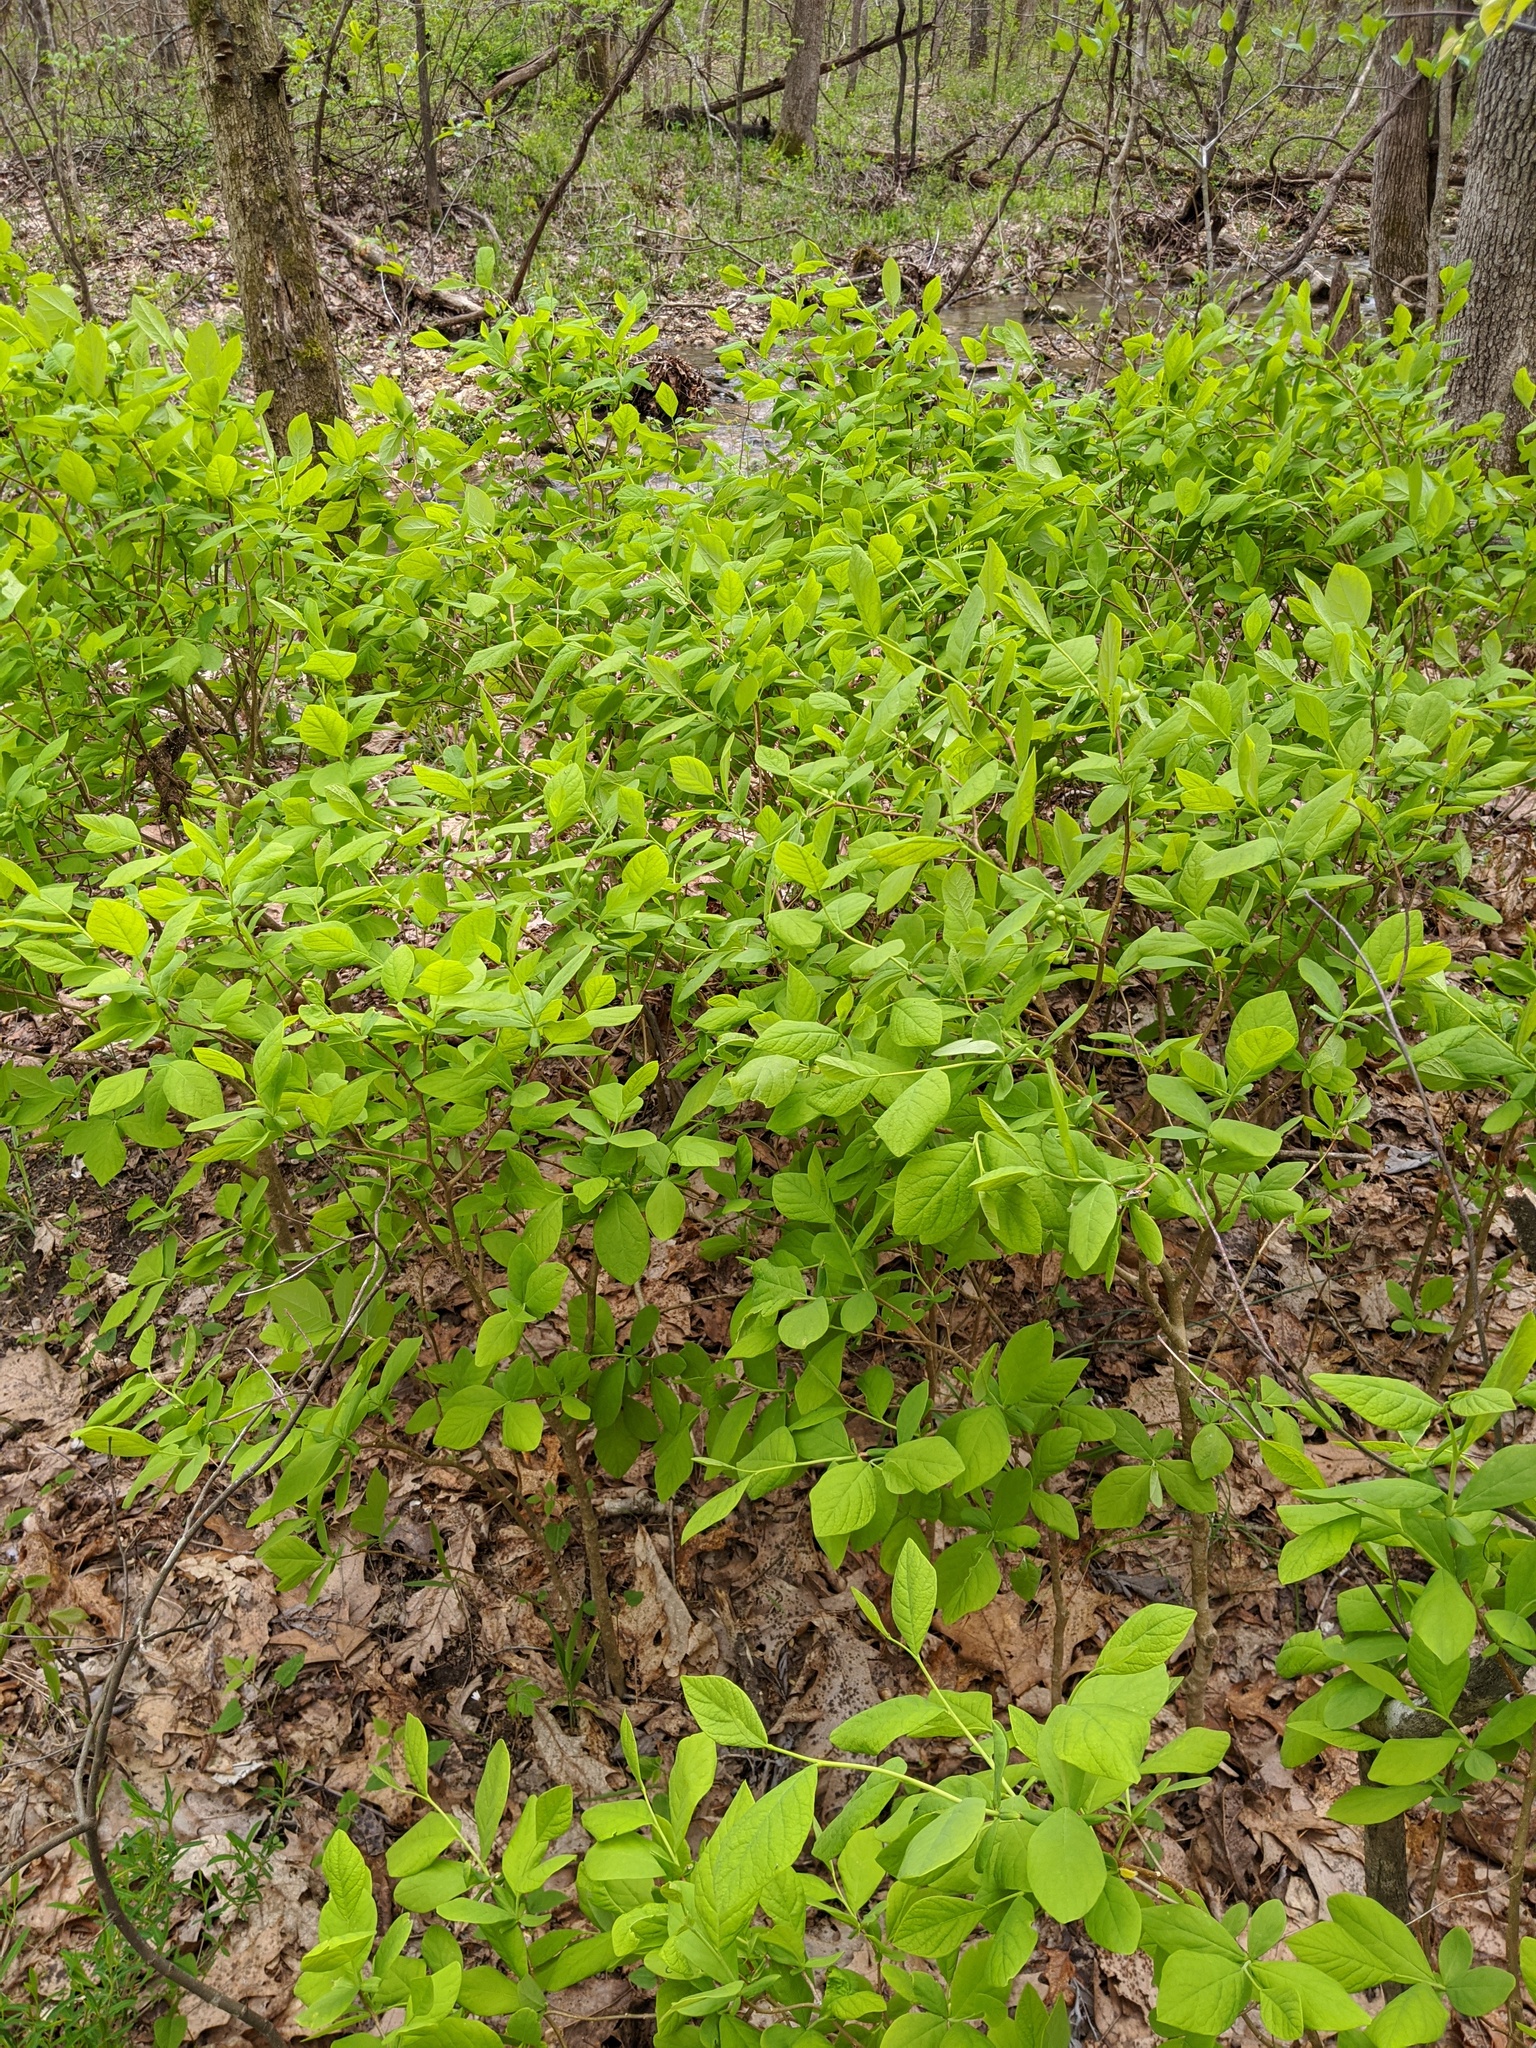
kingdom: Plantae
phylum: Tracheophyta
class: Magnoliopsida
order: Malvales
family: Thymelaeaceae
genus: Dirca
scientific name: Dirca palustris
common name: Leatherwood
